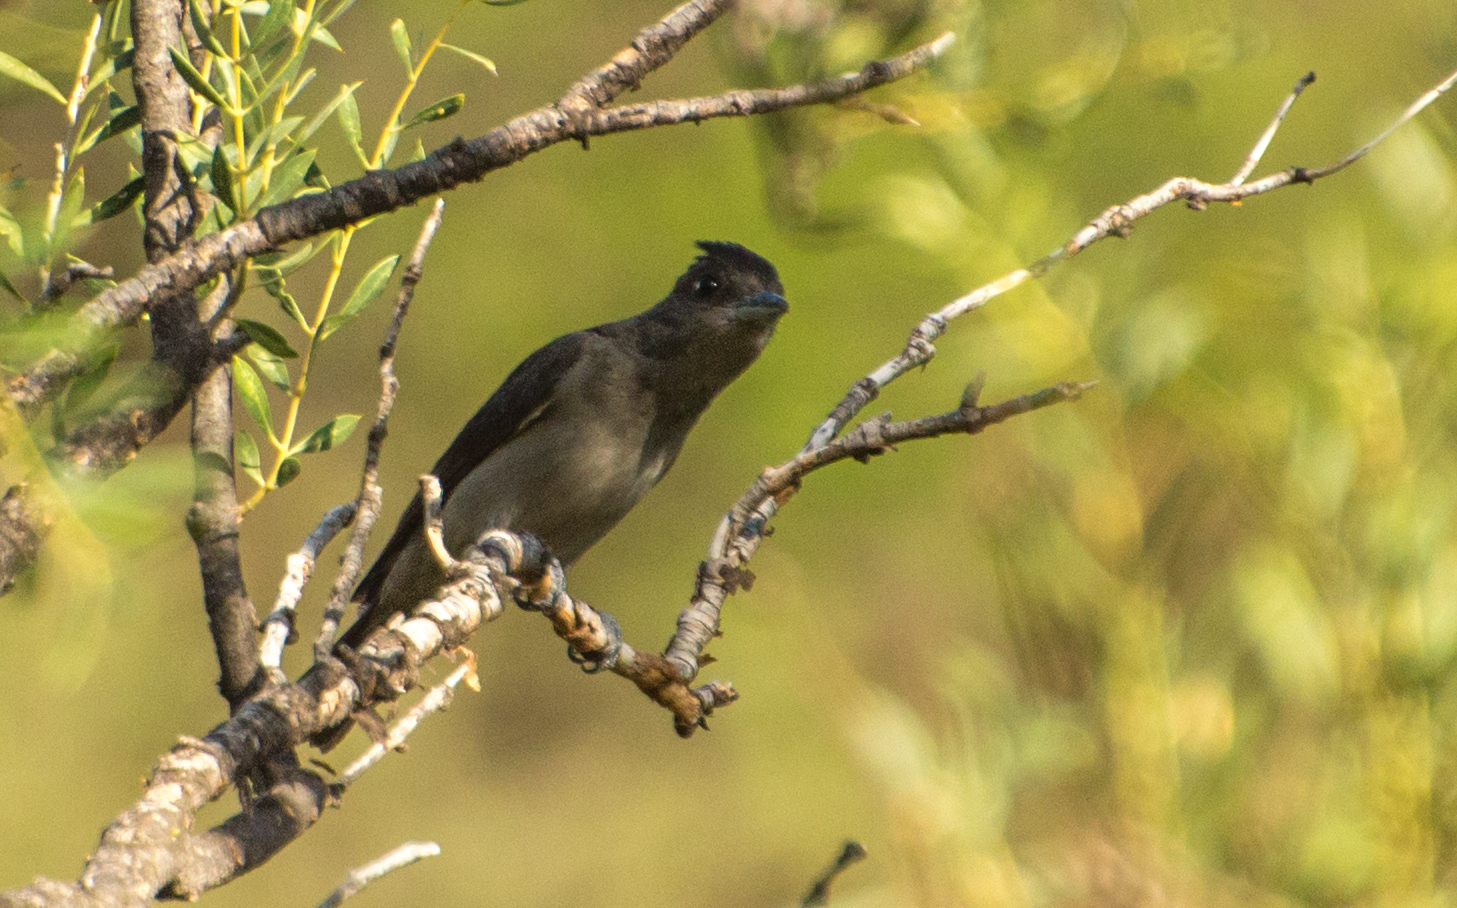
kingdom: Animalia
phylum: Chordata
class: Aves
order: Passeriformes
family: Cotingidae
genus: Pachyramphus
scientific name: Pachyramphus validus
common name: Crested becard
